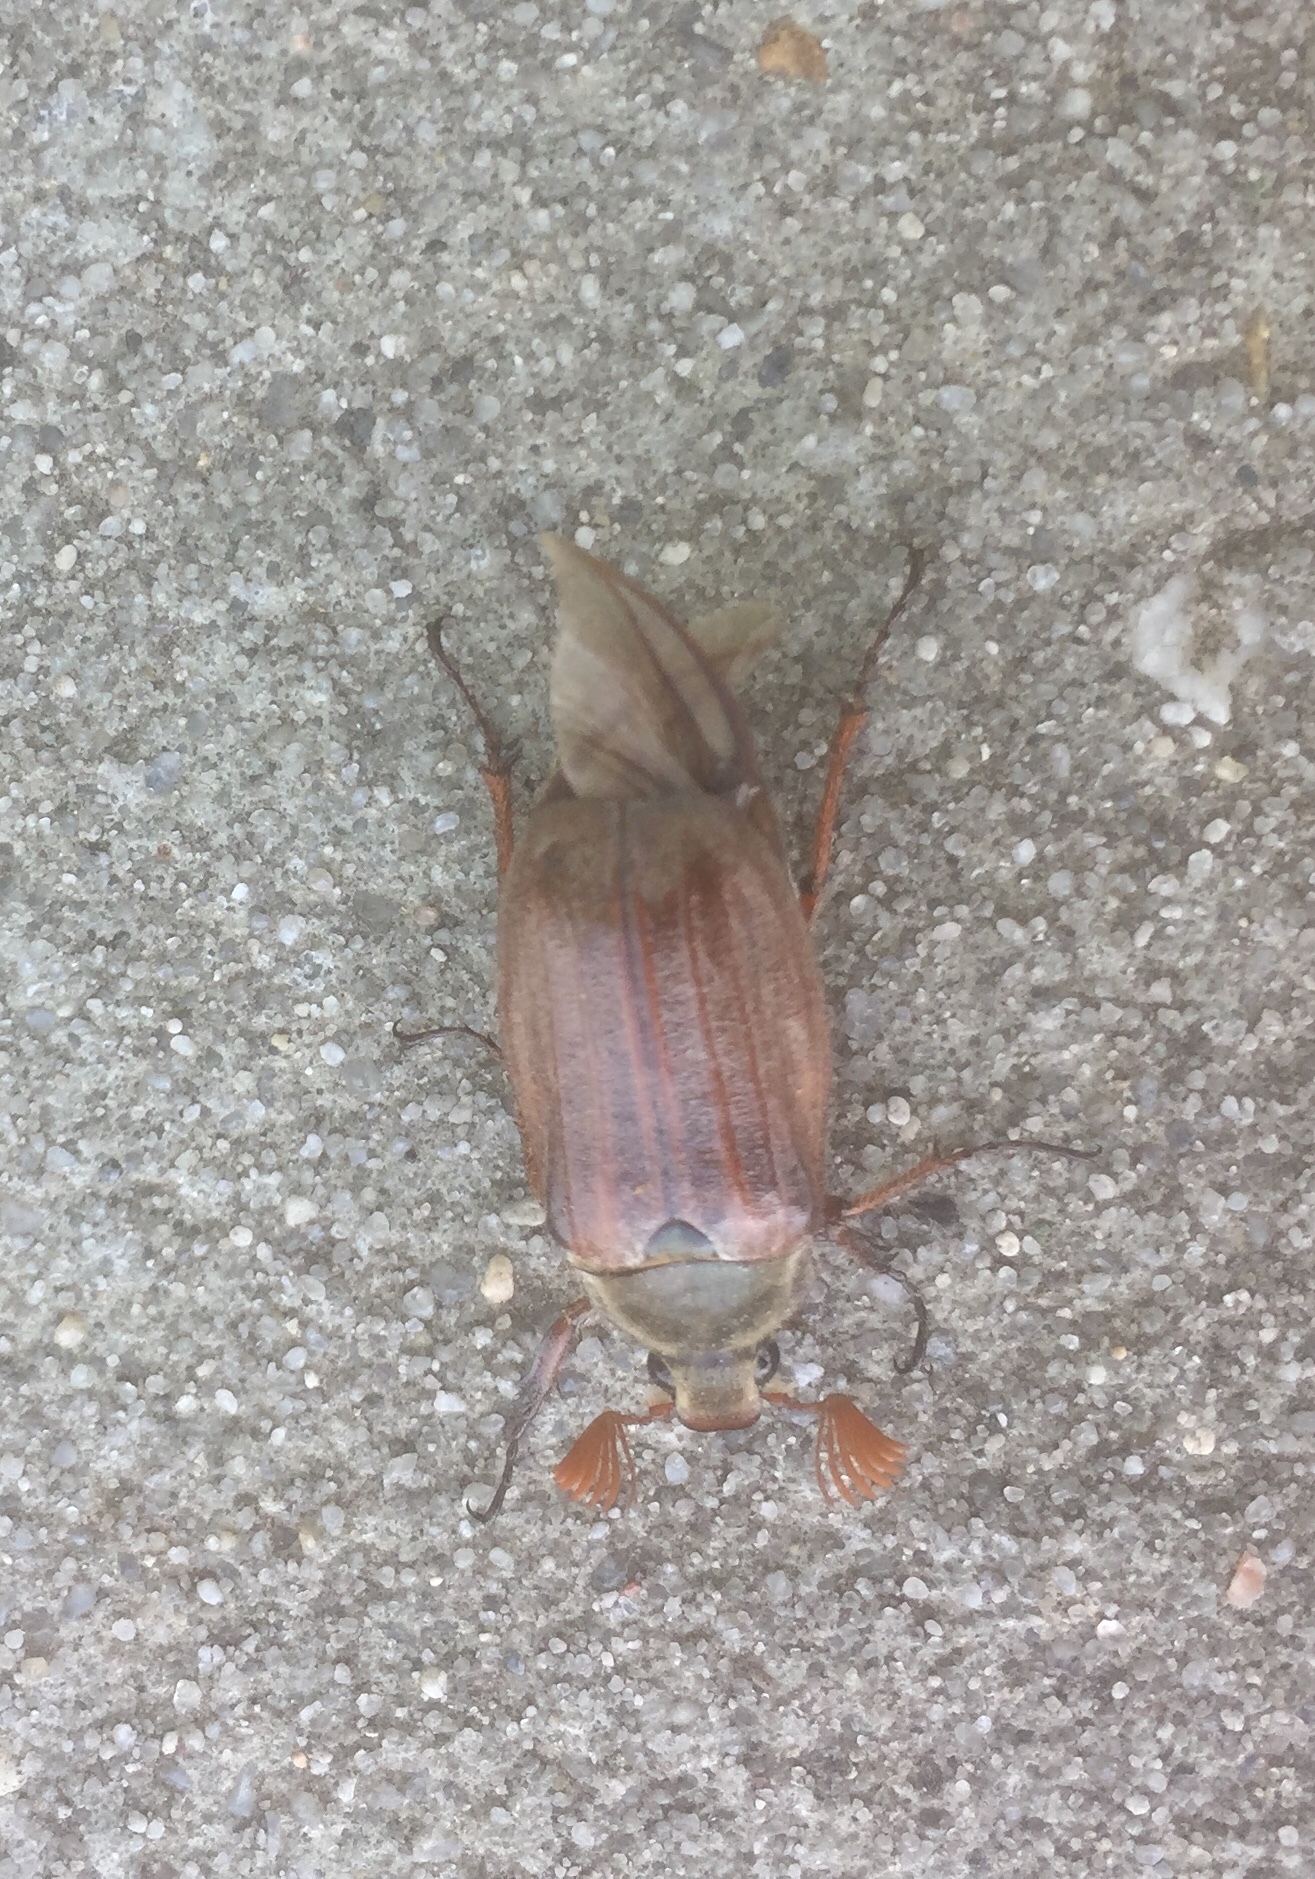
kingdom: Animalia
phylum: Arthropoda
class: Insecta
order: Coleoptera
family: Scarabaeidae
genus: Melolontha
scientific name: Melolontha melolontha
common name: Cockchafer maybeetle
